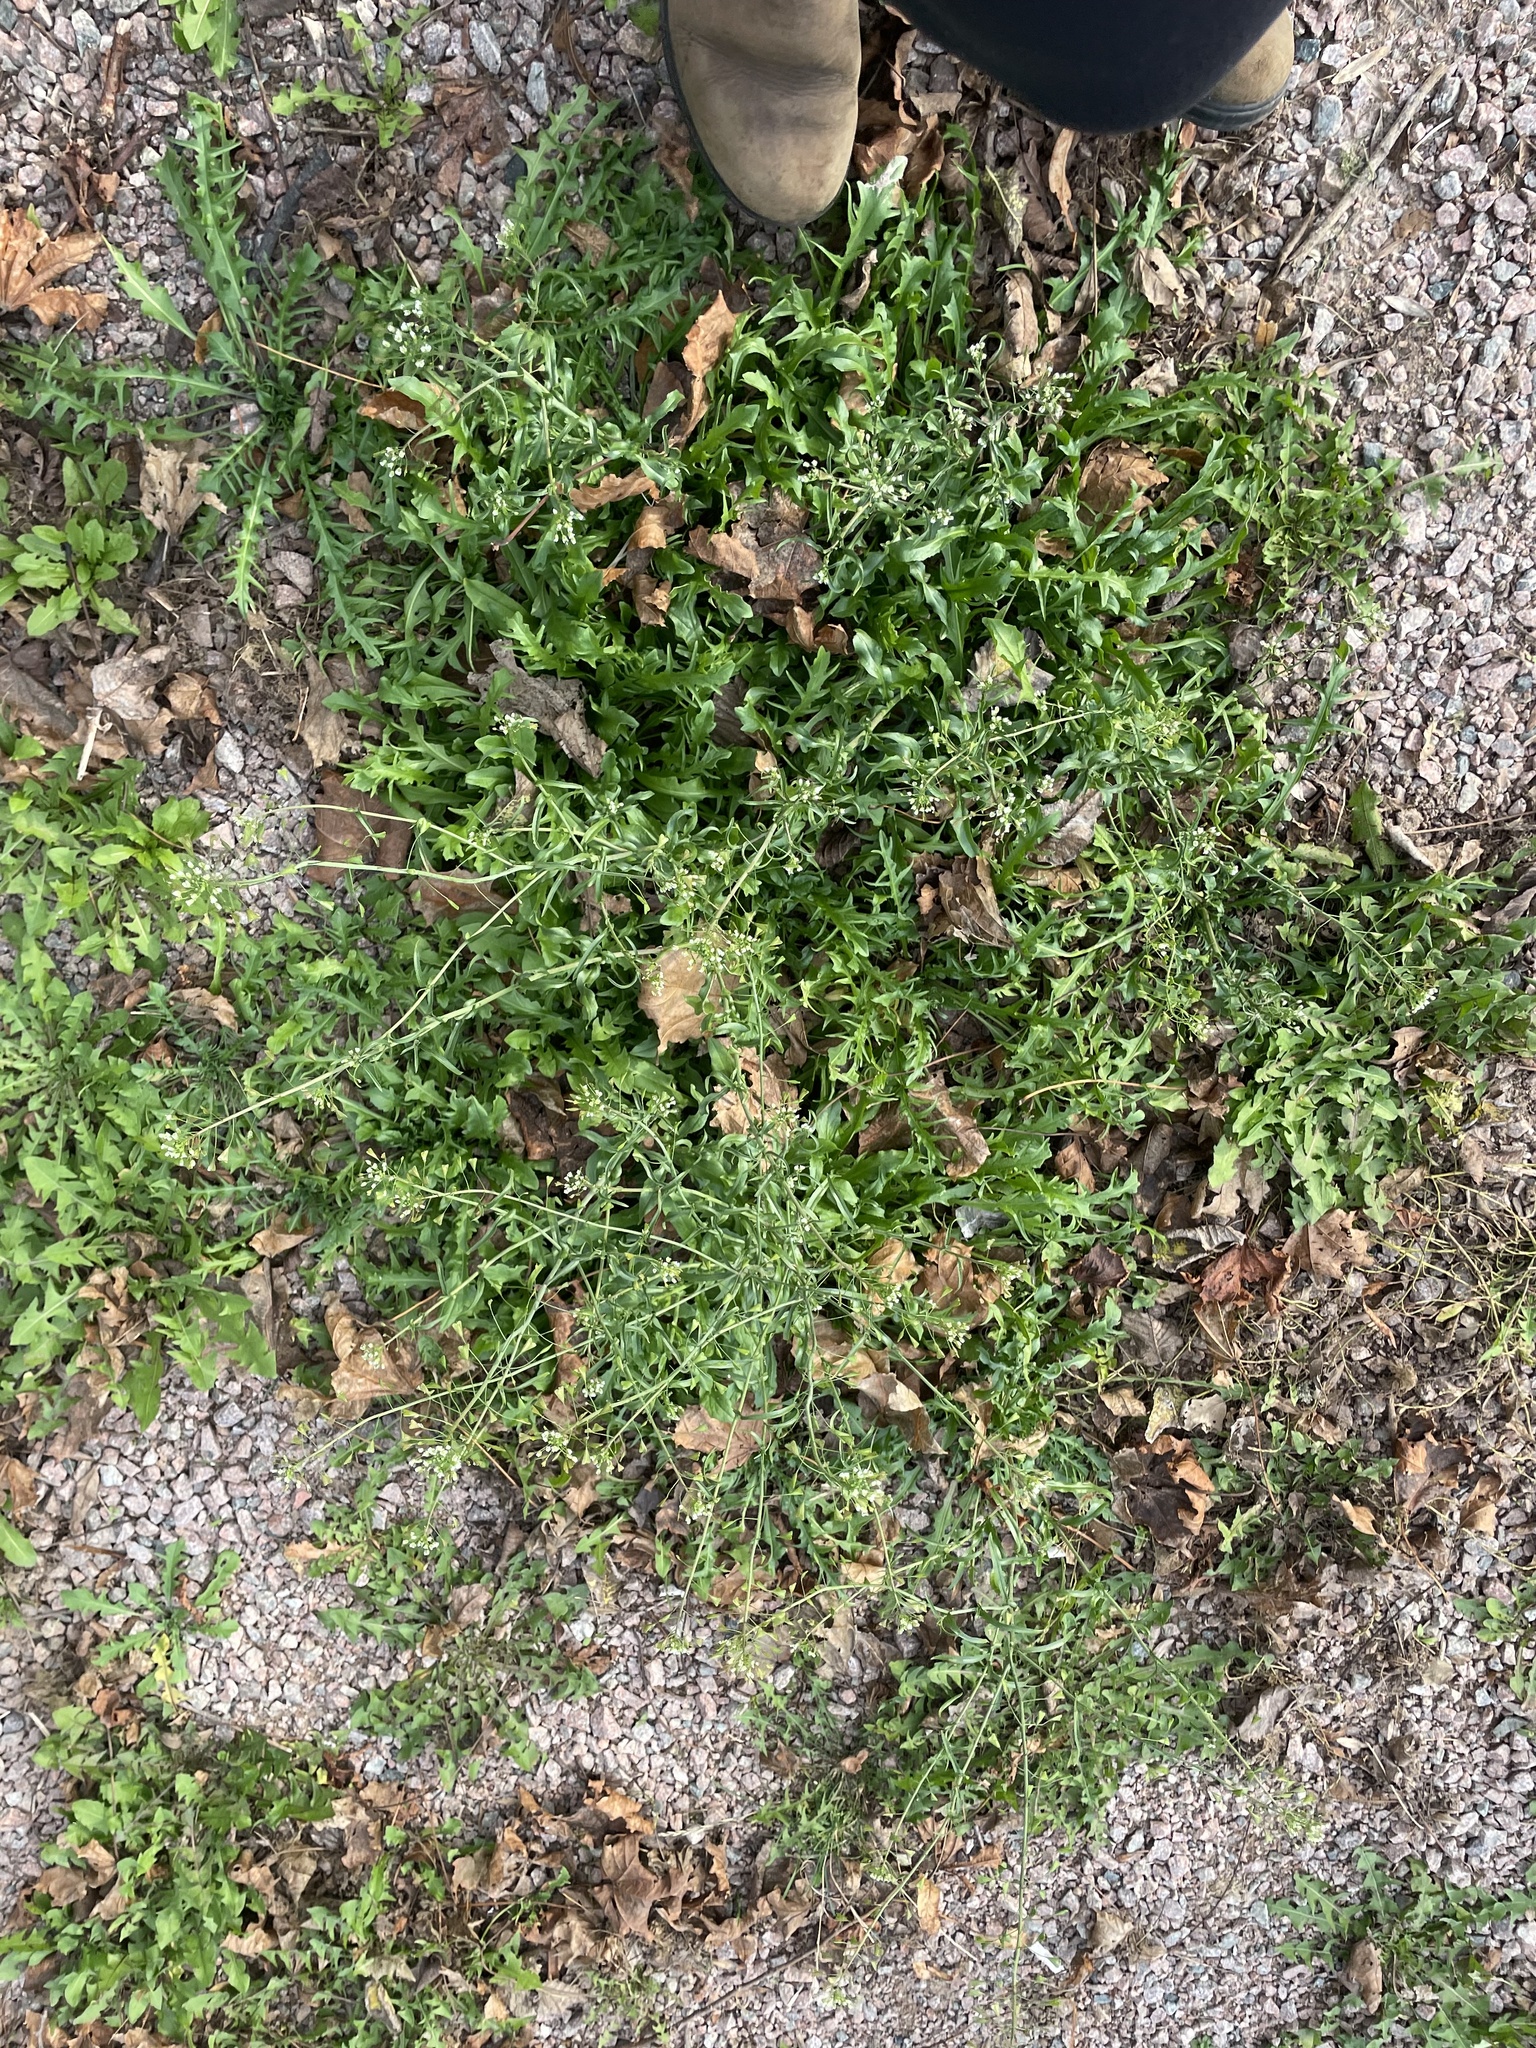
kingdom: Plantae
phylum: Tracheophyta
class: Magnoliopsida
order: Brassicales
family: Brassicaceae
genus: Capsella
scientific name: Capsella bursa-pastoris
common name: Shepherd's purse
